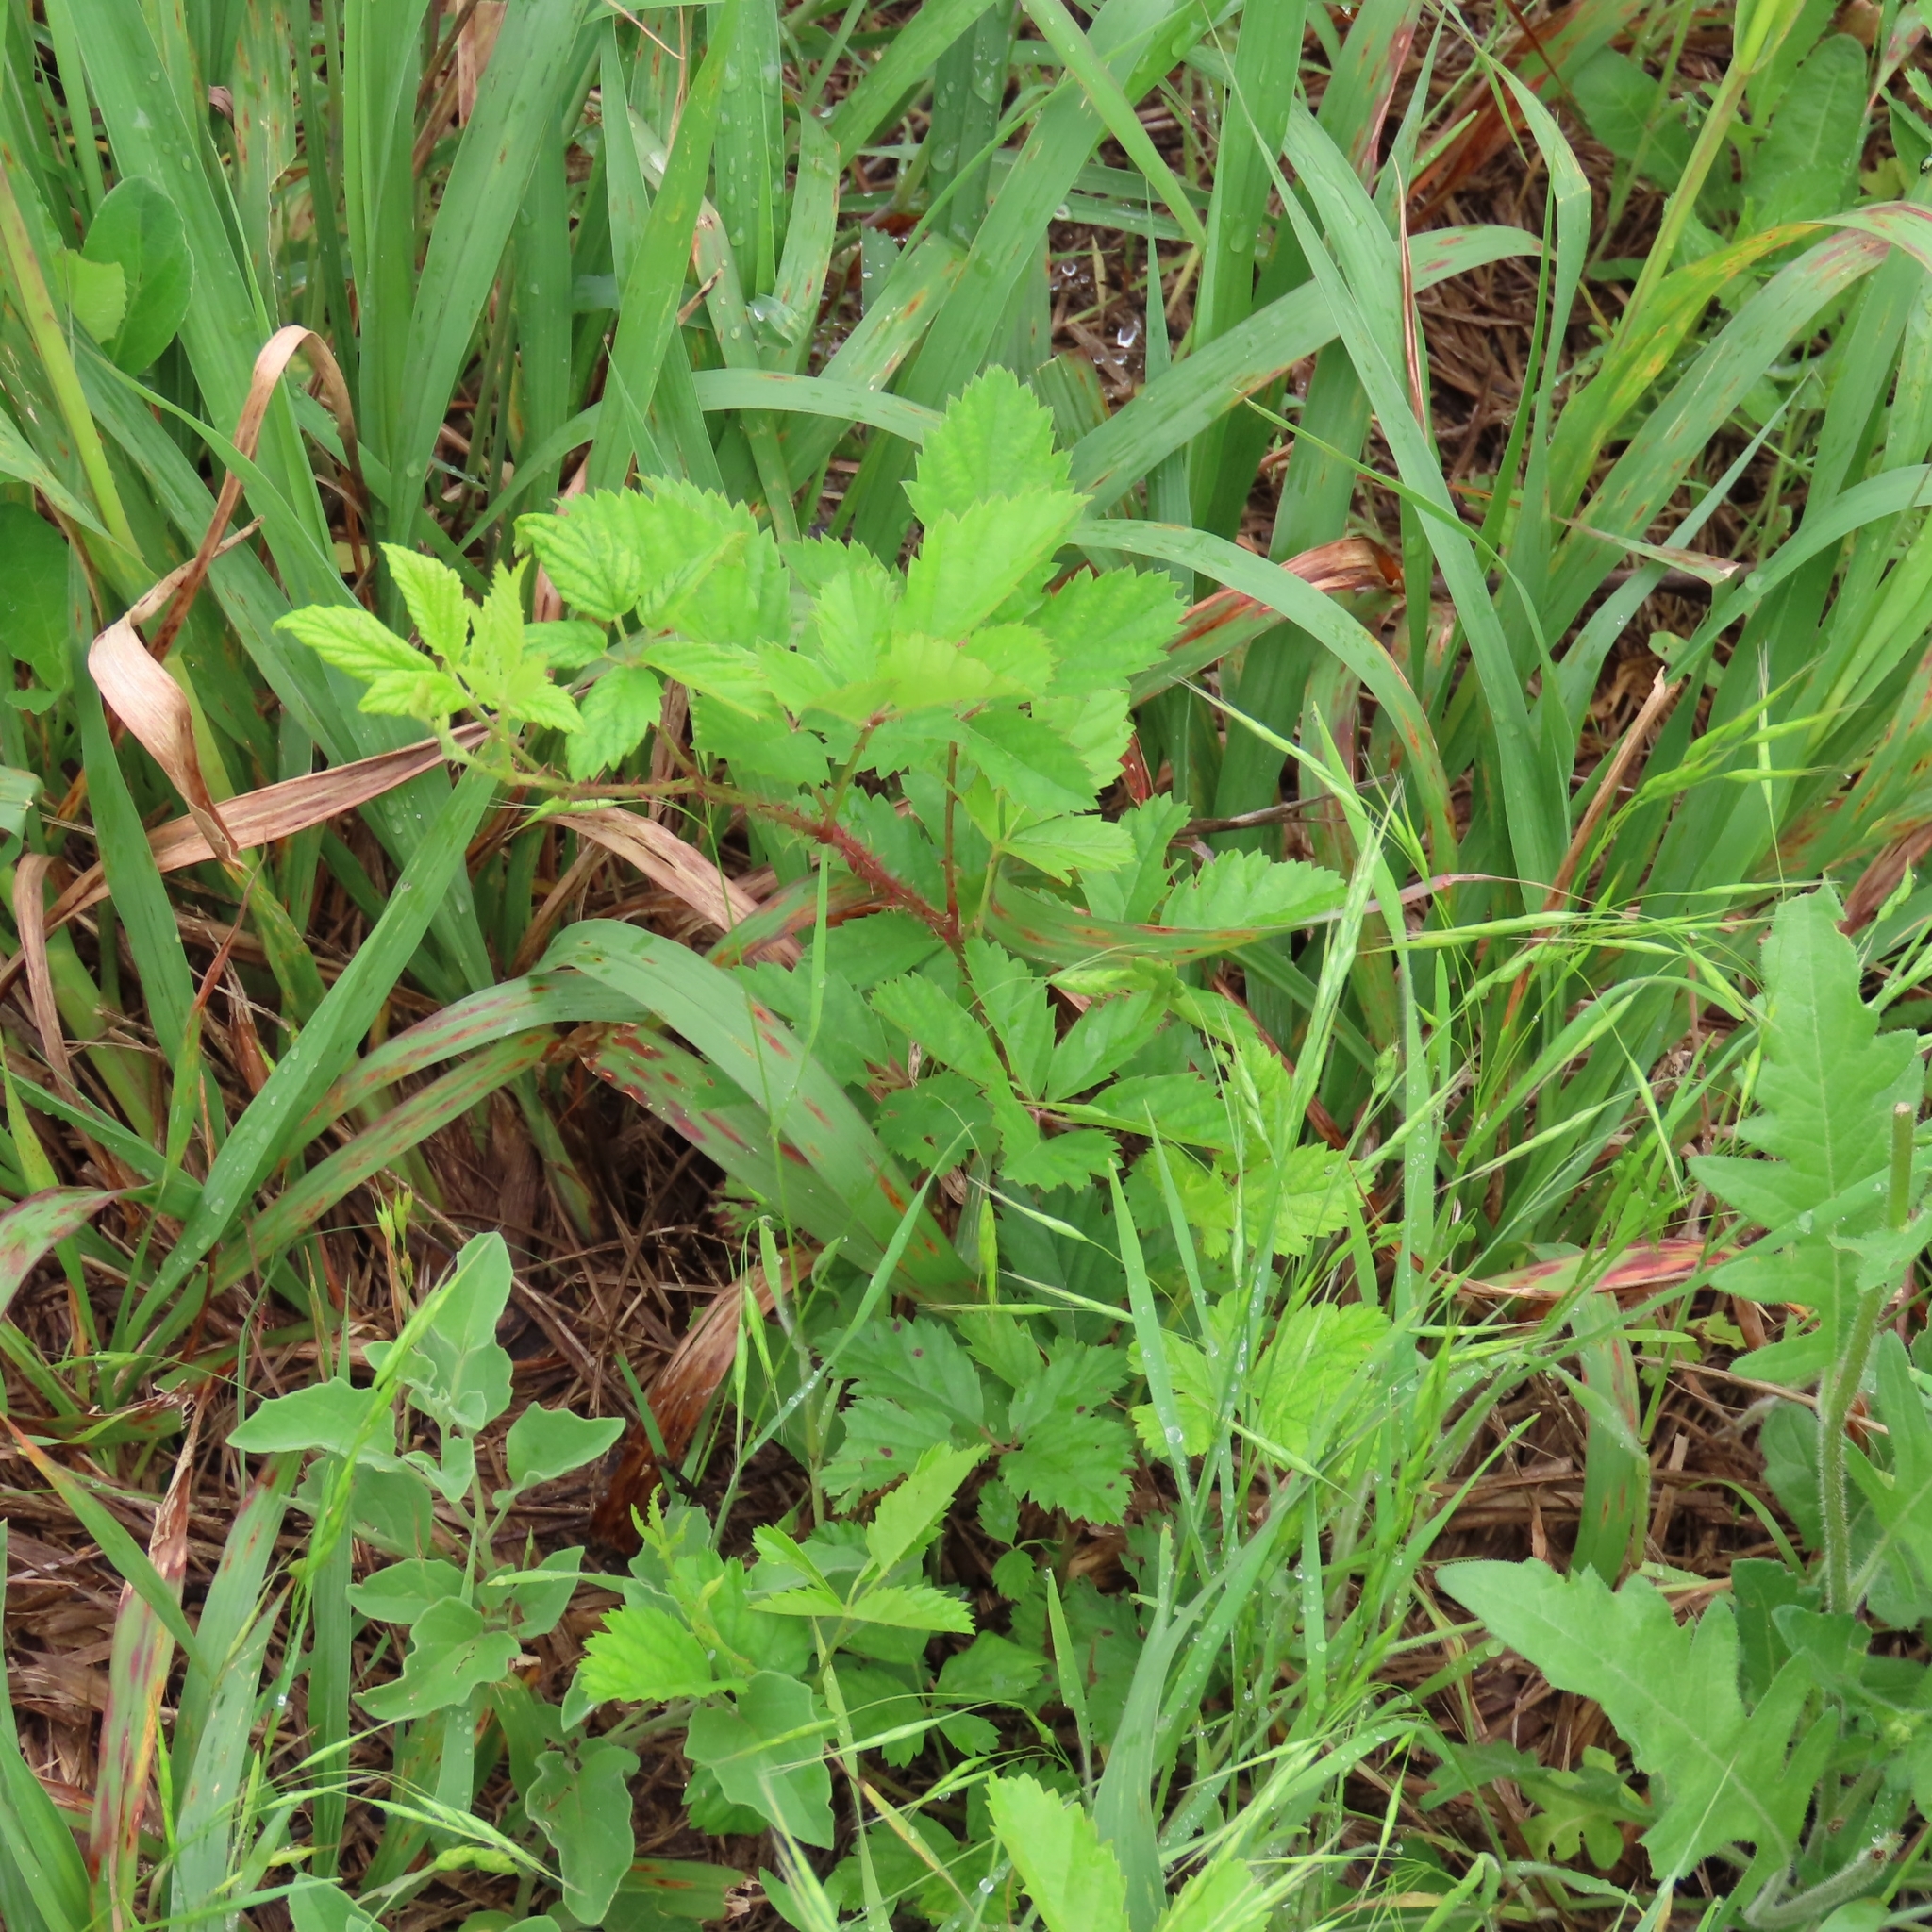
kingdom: Plantae
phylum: Tracheophyta
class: Magnoliopsida
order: Rosales
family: Rosaceae
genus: Rubus
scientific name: Rubus trivialis
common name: Southern dewberry
